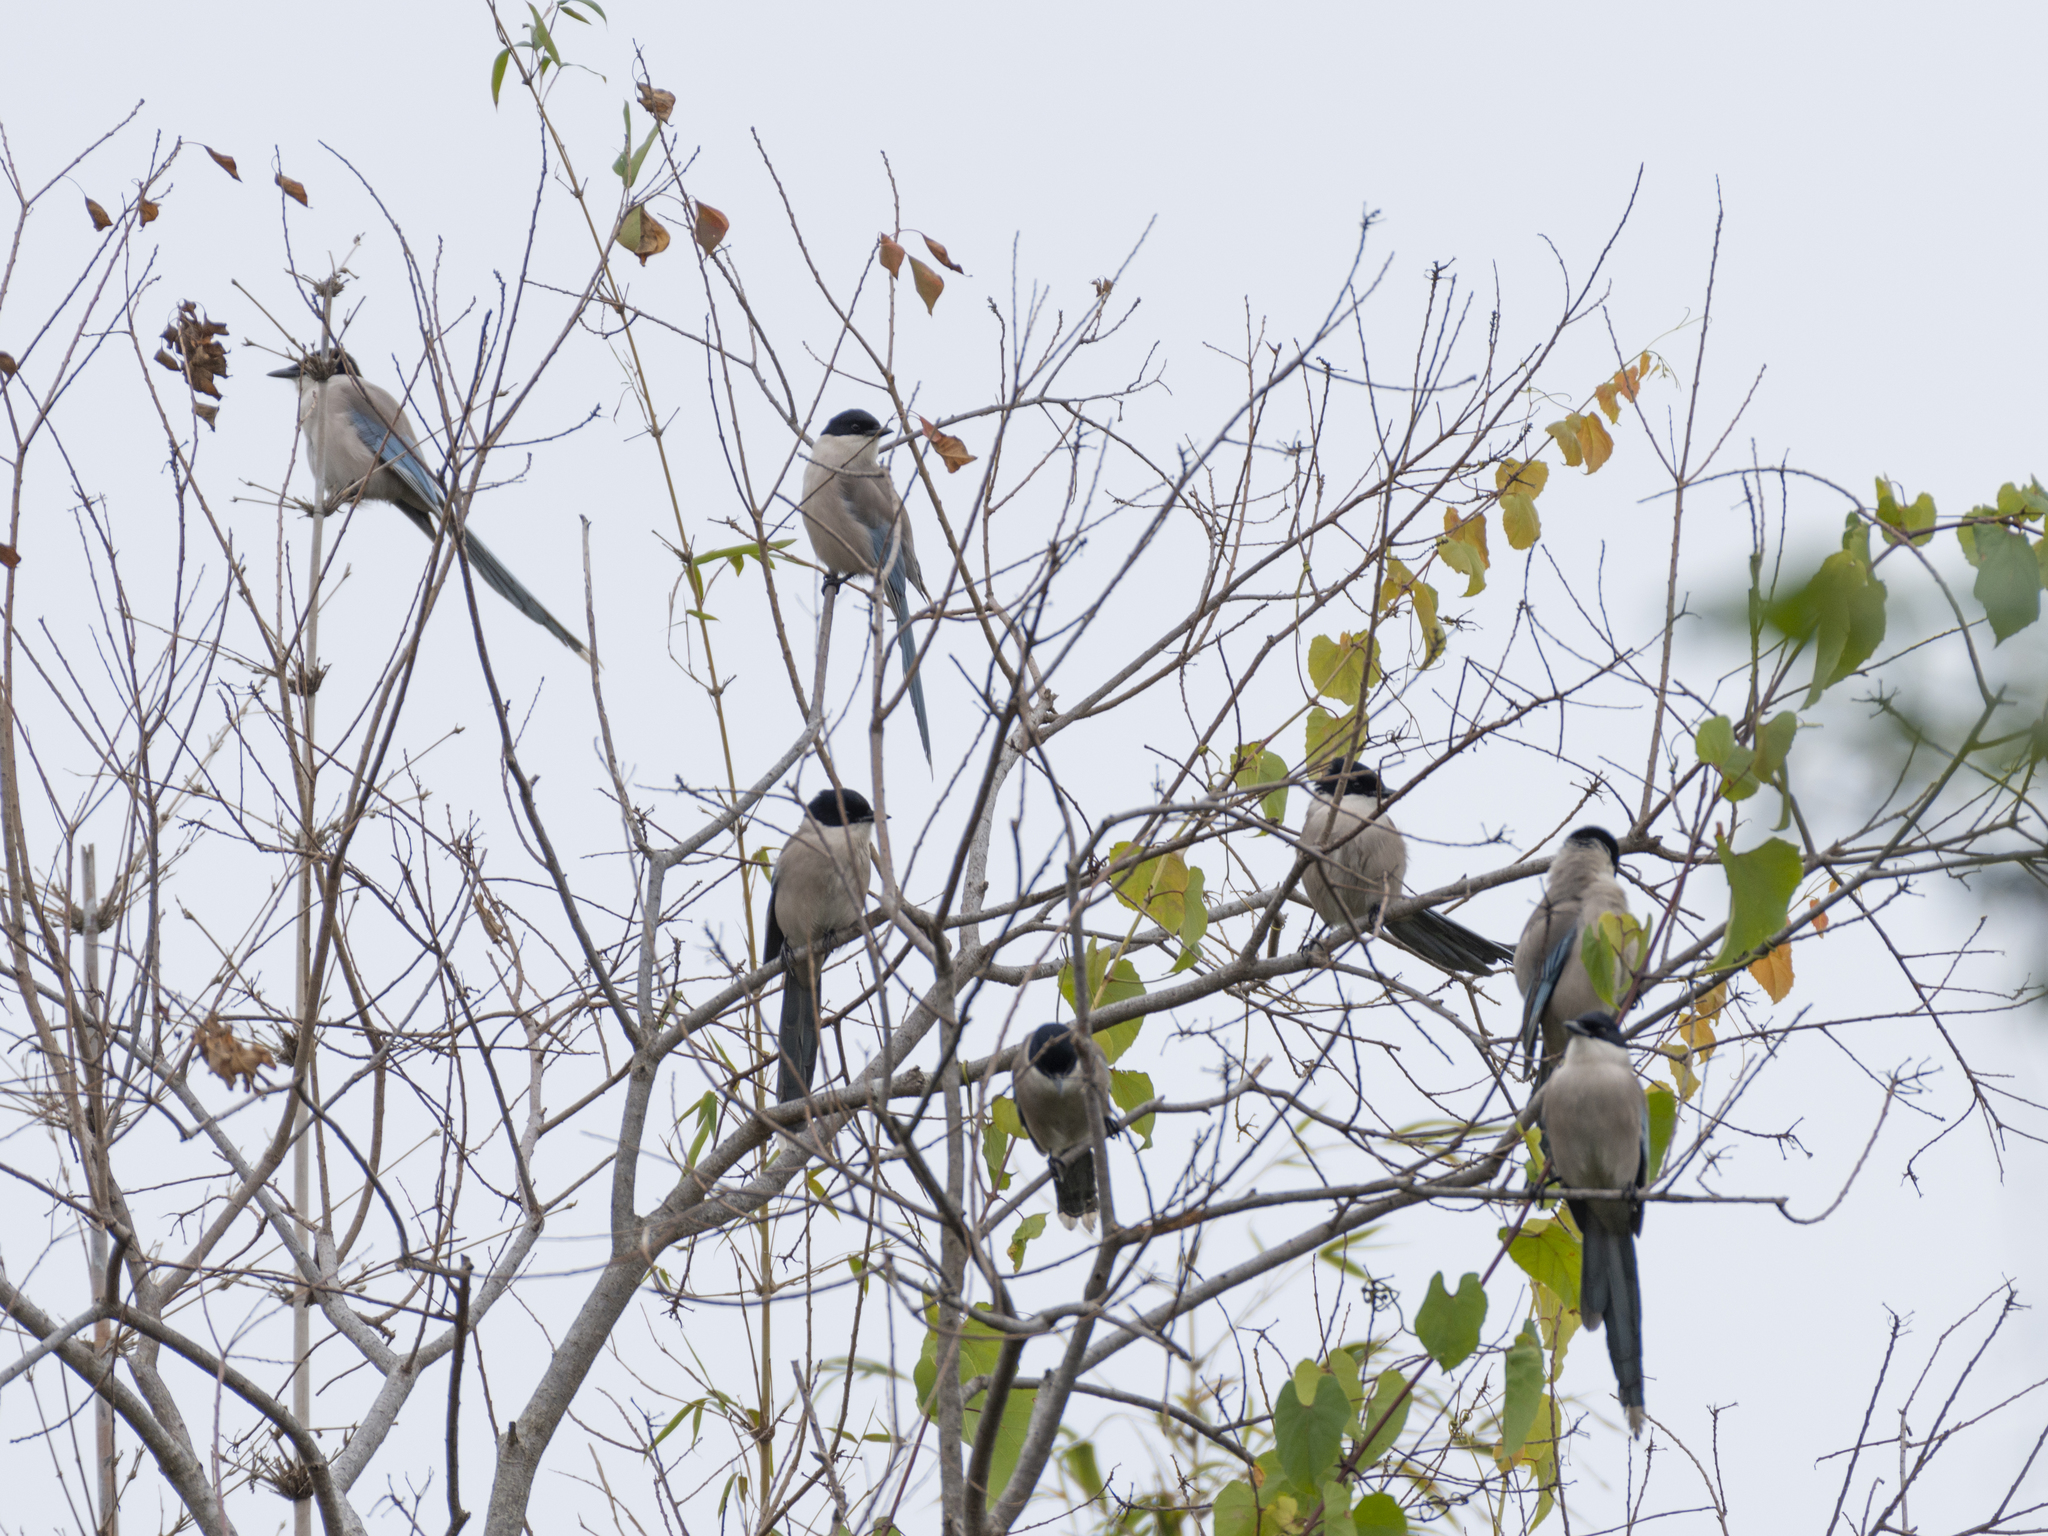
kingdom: Animalia
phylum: Chordata
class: Aves
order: Passeriformes
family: Corvidae
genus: Cyanopica
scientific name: Cyanopica cyanus
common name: Azure-winged magpie
